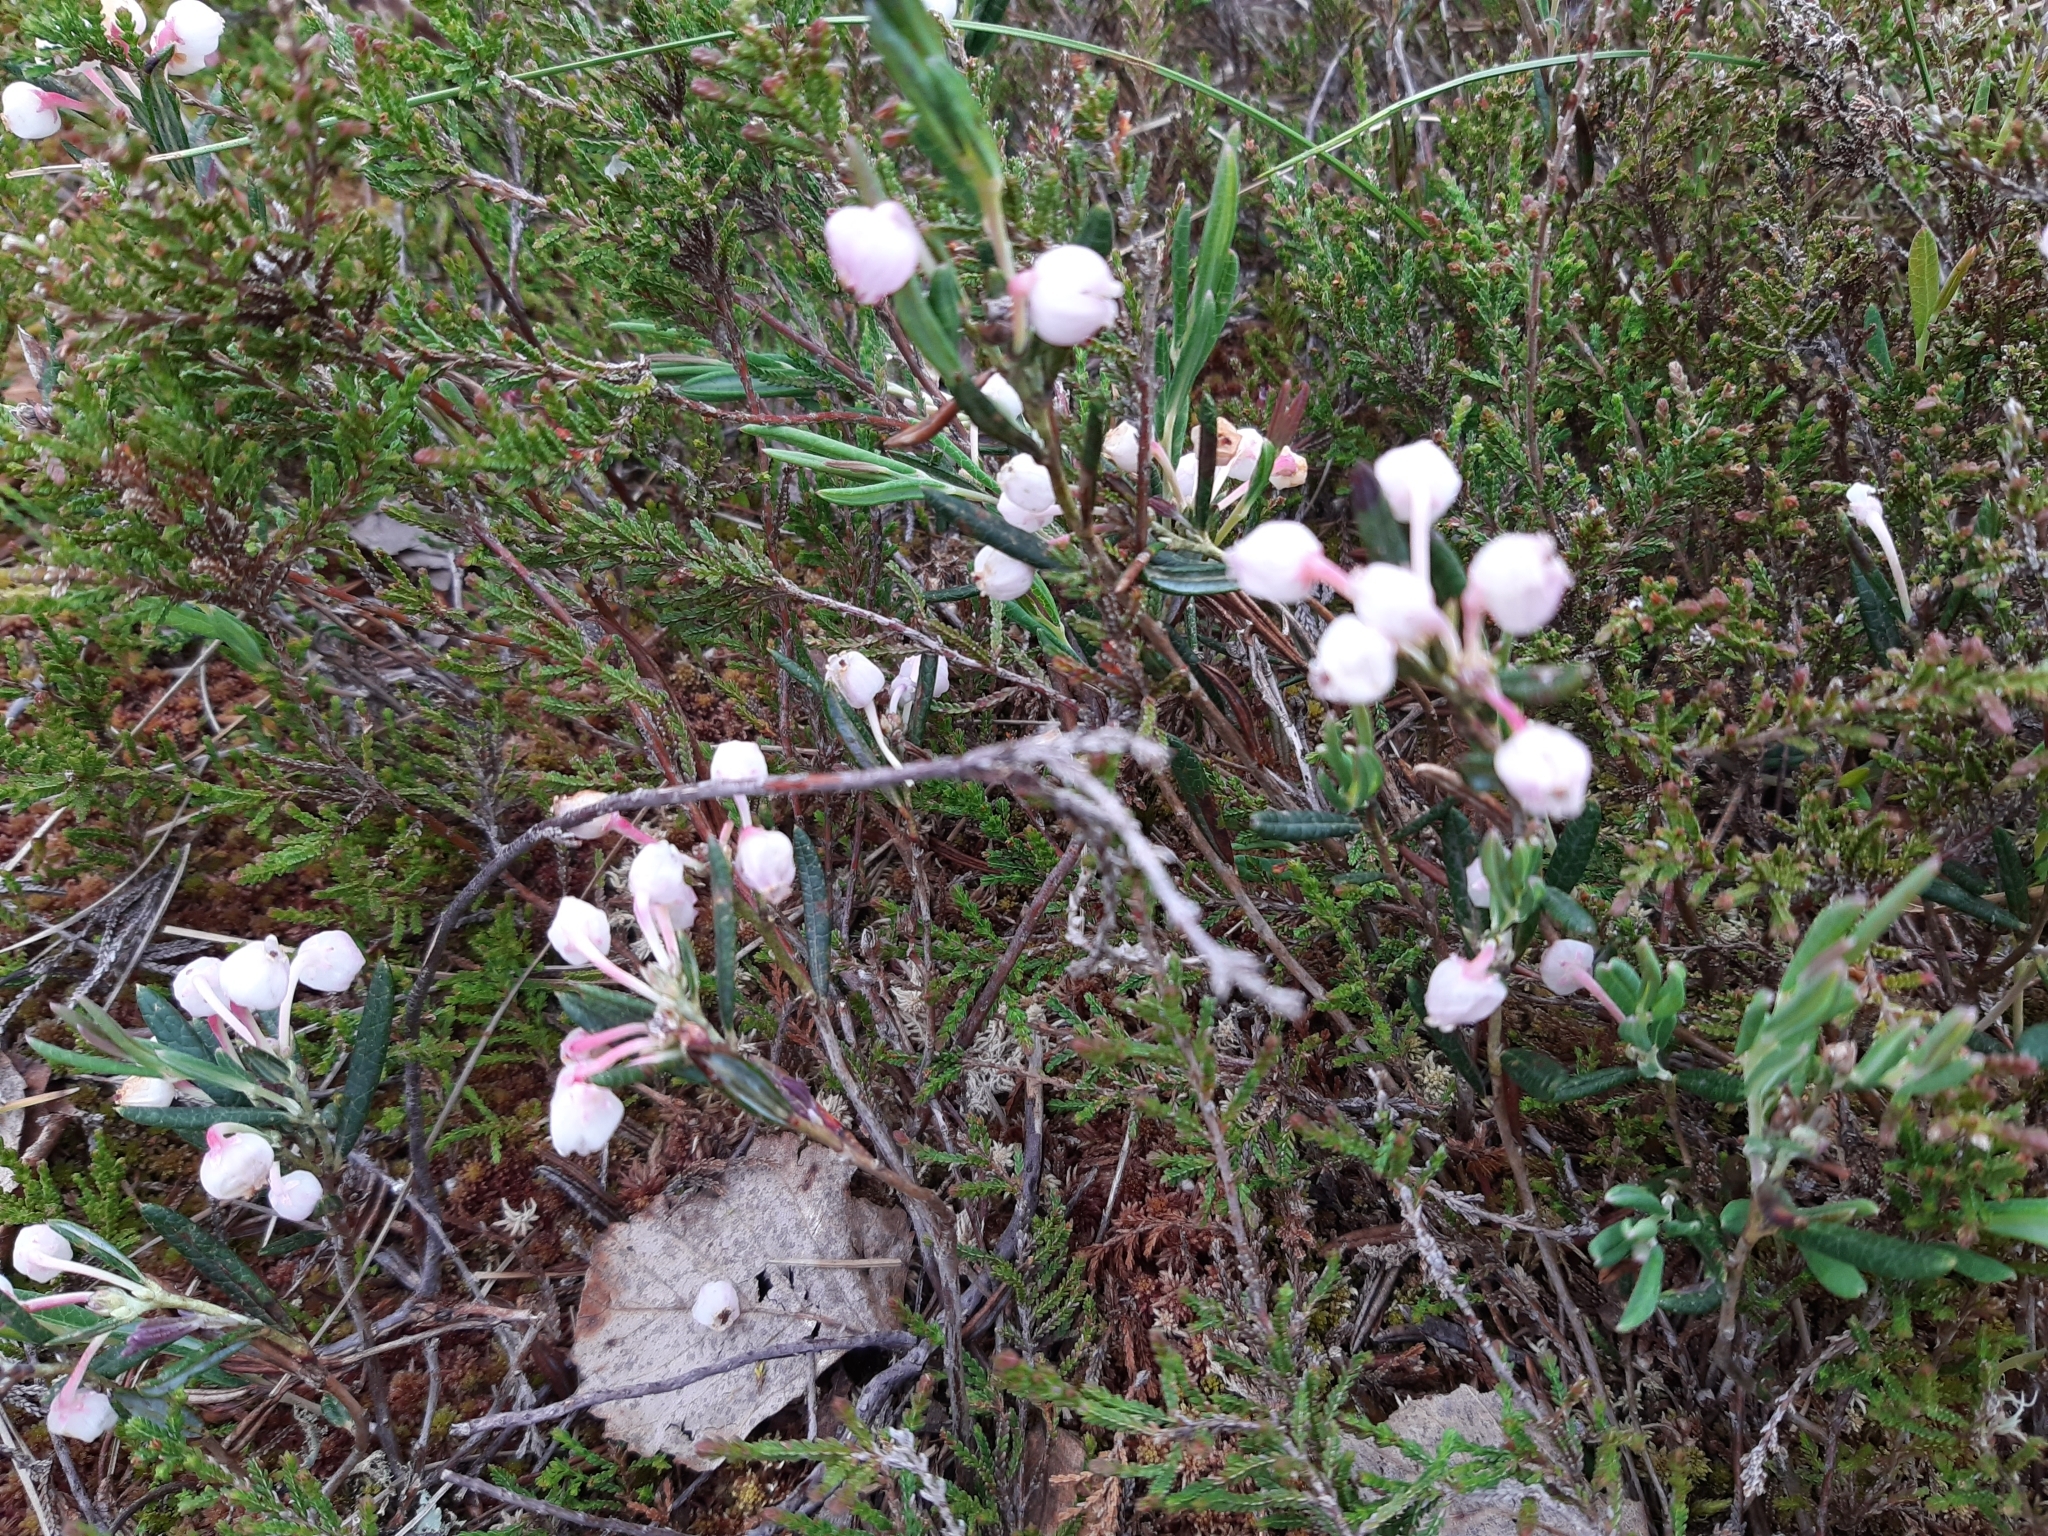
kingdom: Plantae
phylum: Tracheophyta
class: Magnoliopsida
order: Ericales
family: Ericaceae
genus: Andromeda
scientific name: Andromeda polifolia
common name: Bog-rosemary
